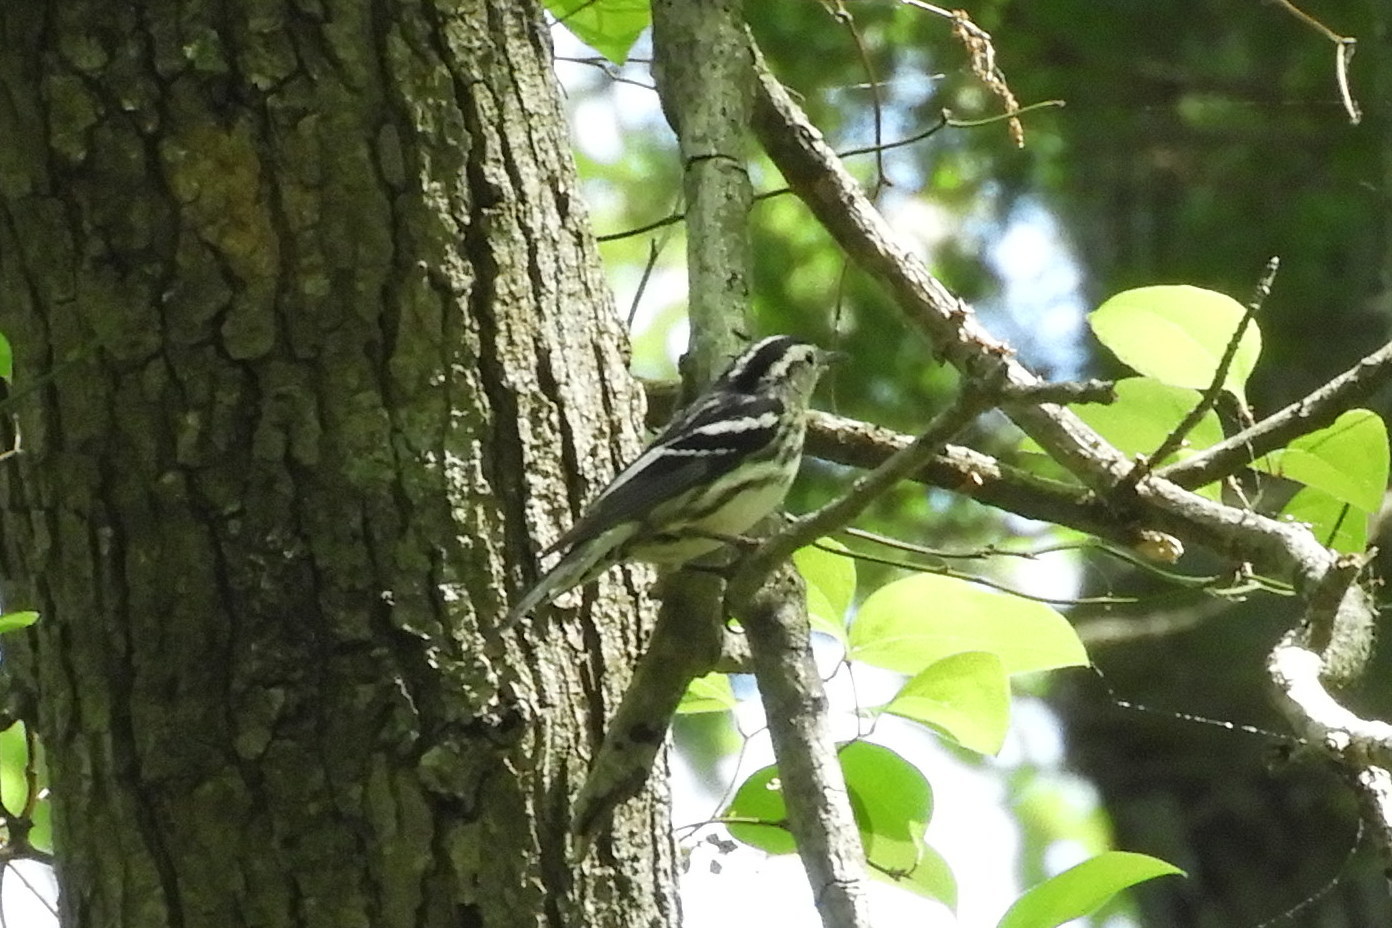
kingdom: Animalia
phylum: Chordata
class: Aves
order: Passeriformes
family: Parulidae
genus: Mniotilta
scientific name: Mniotilta varia
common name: Black-and-white warbler
